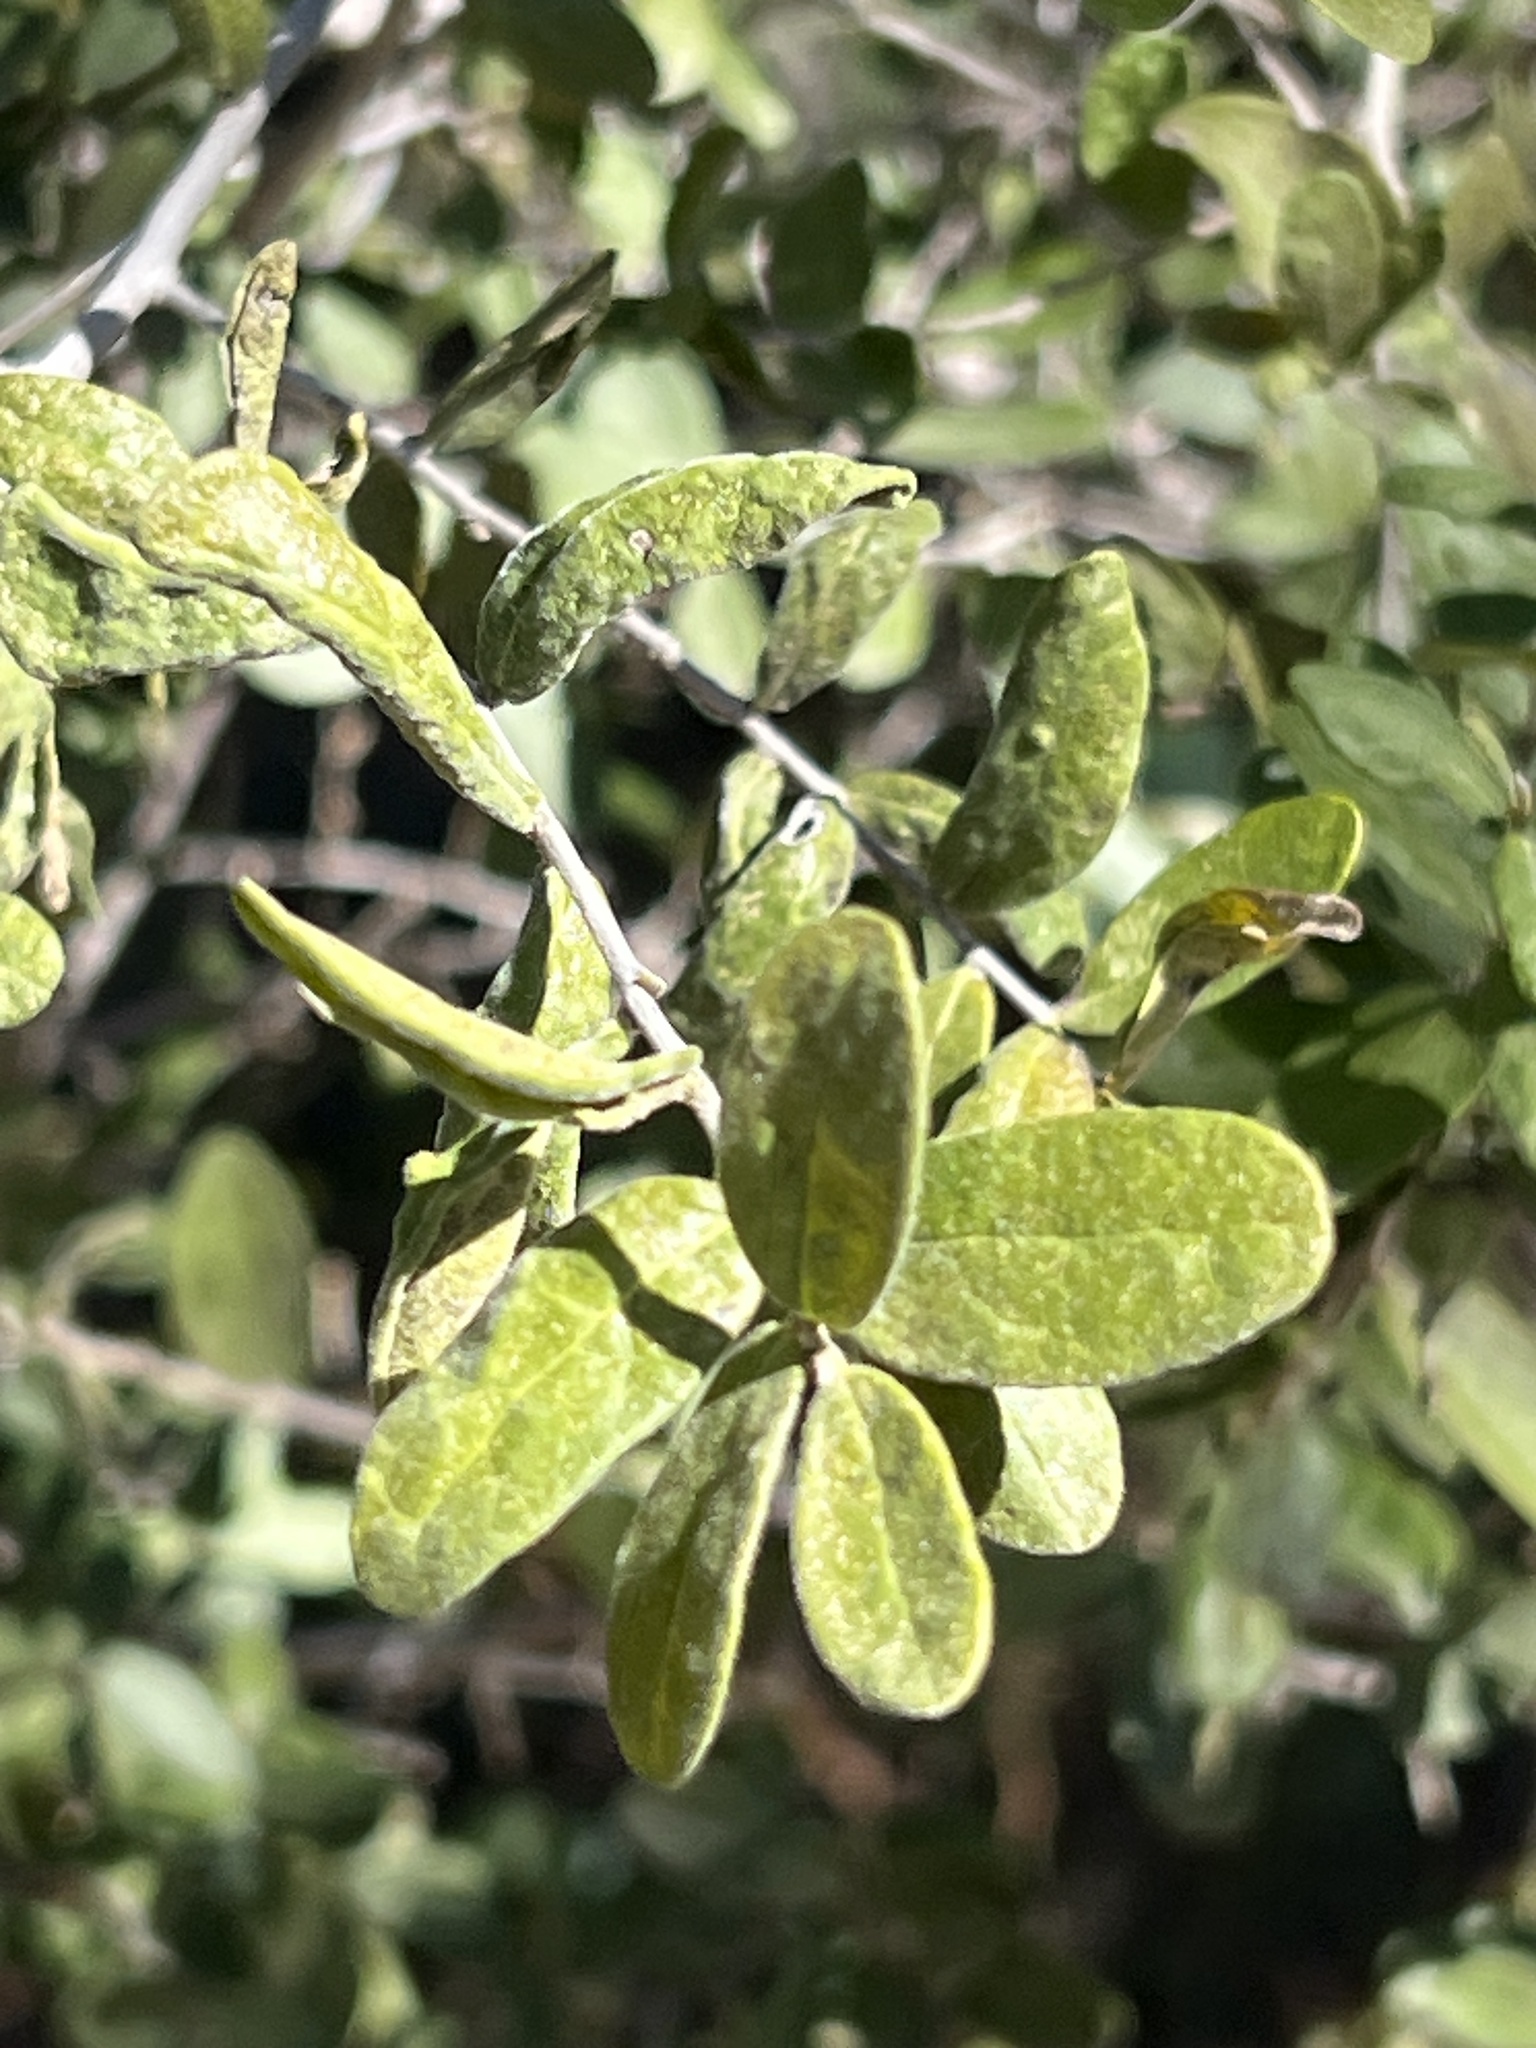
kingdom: Plantae
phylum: Tracheophyta
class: Magnoliopsida
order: Ericales
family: Ebenaceae
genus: Diospyros
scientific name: Diospyros texana
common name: Texas persimmon
